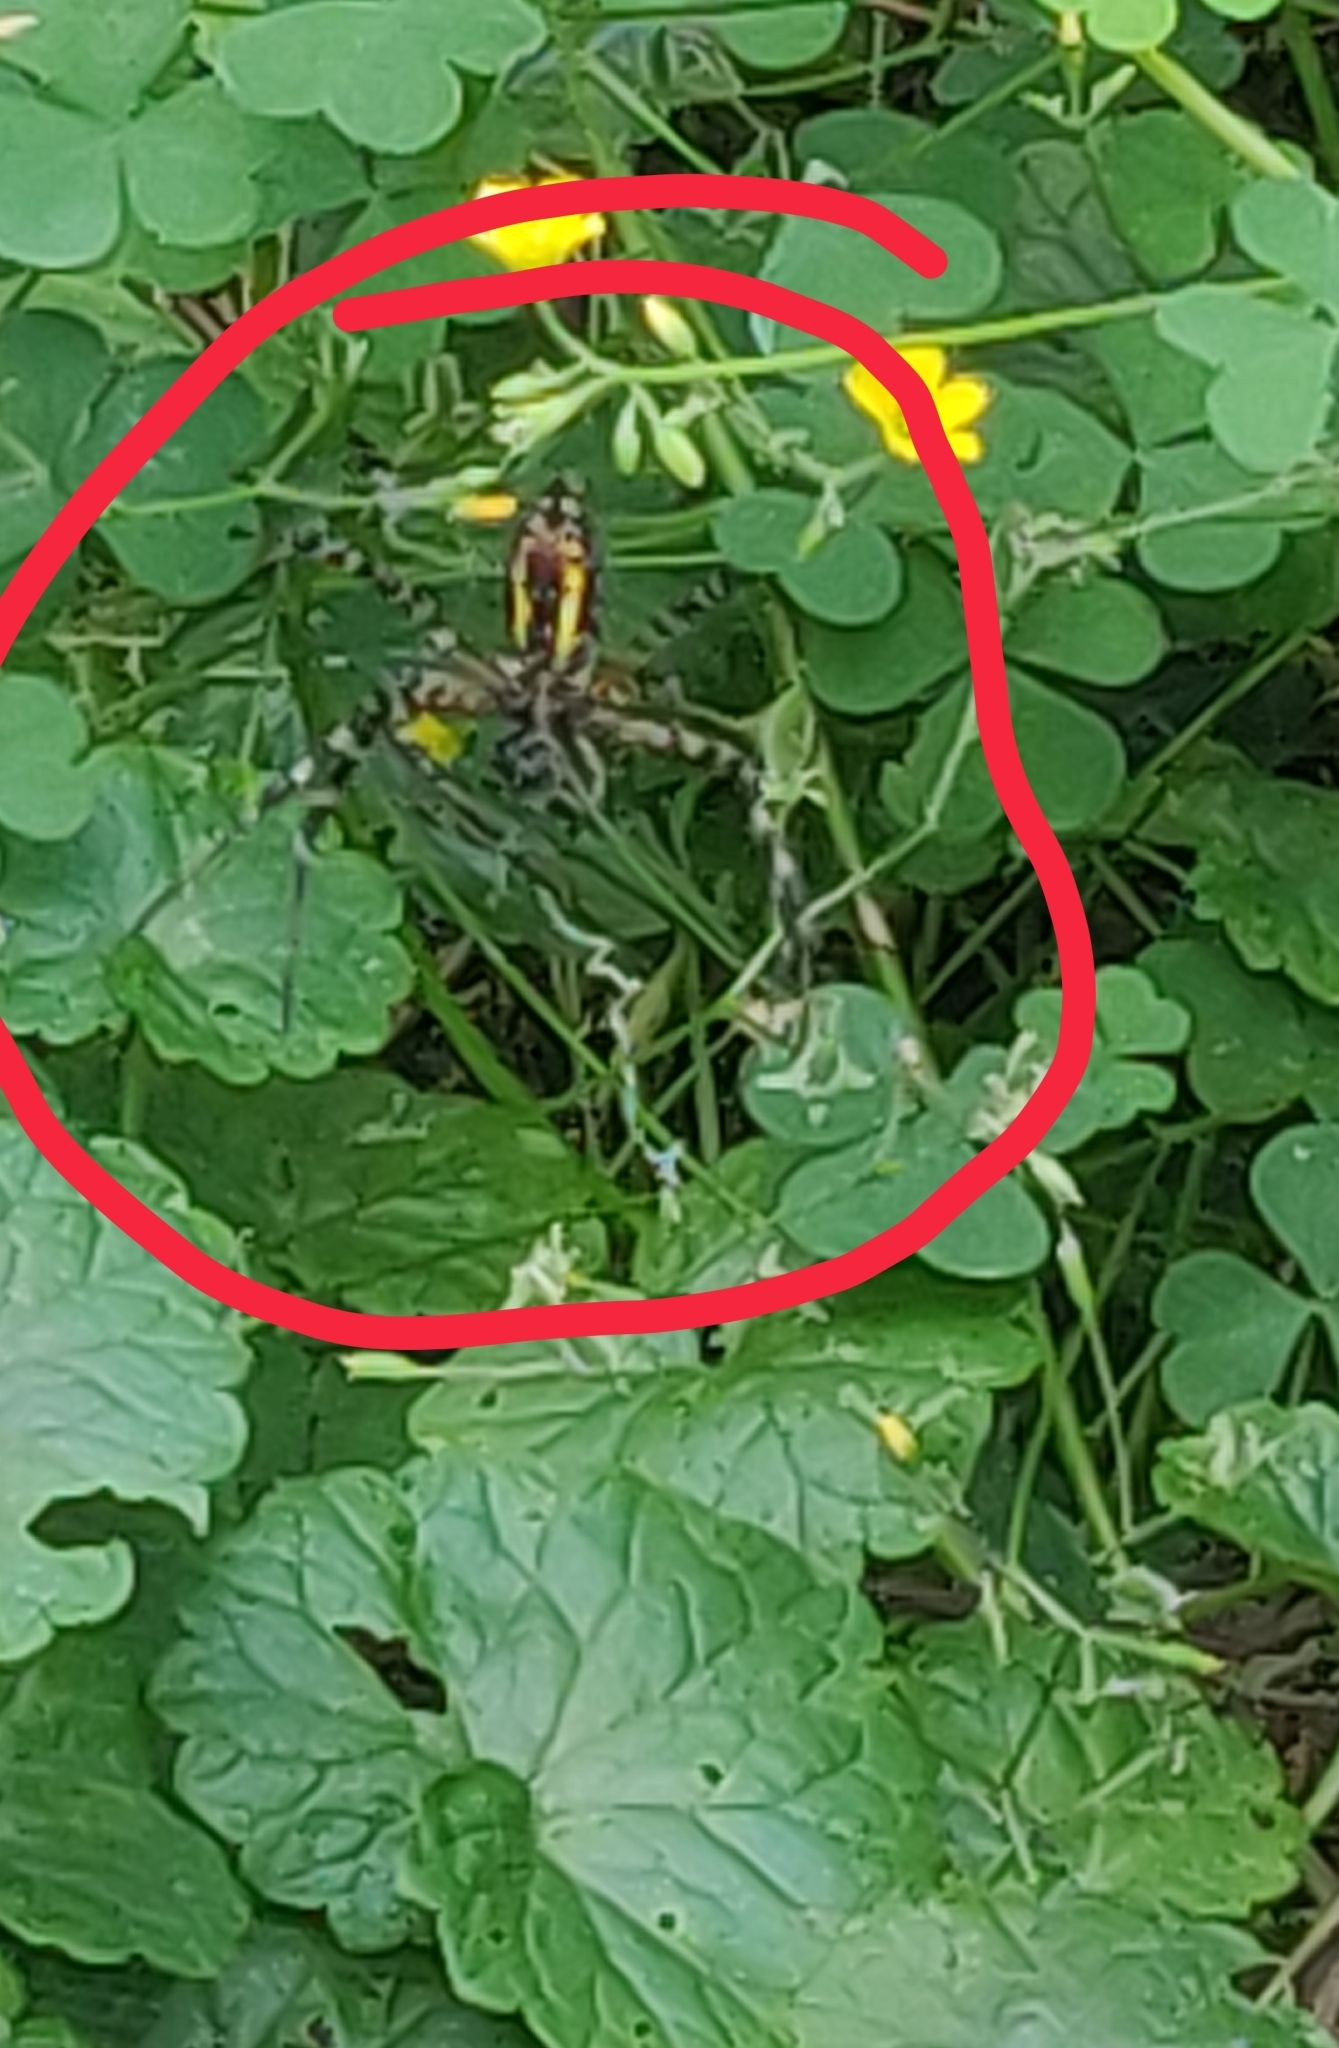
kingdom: Animalia
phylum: Arthropoda
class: Arachnida
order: Araneae
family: Araneidae
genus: Argiope
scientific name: Argiope trifasciata
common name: Banded garden spider
